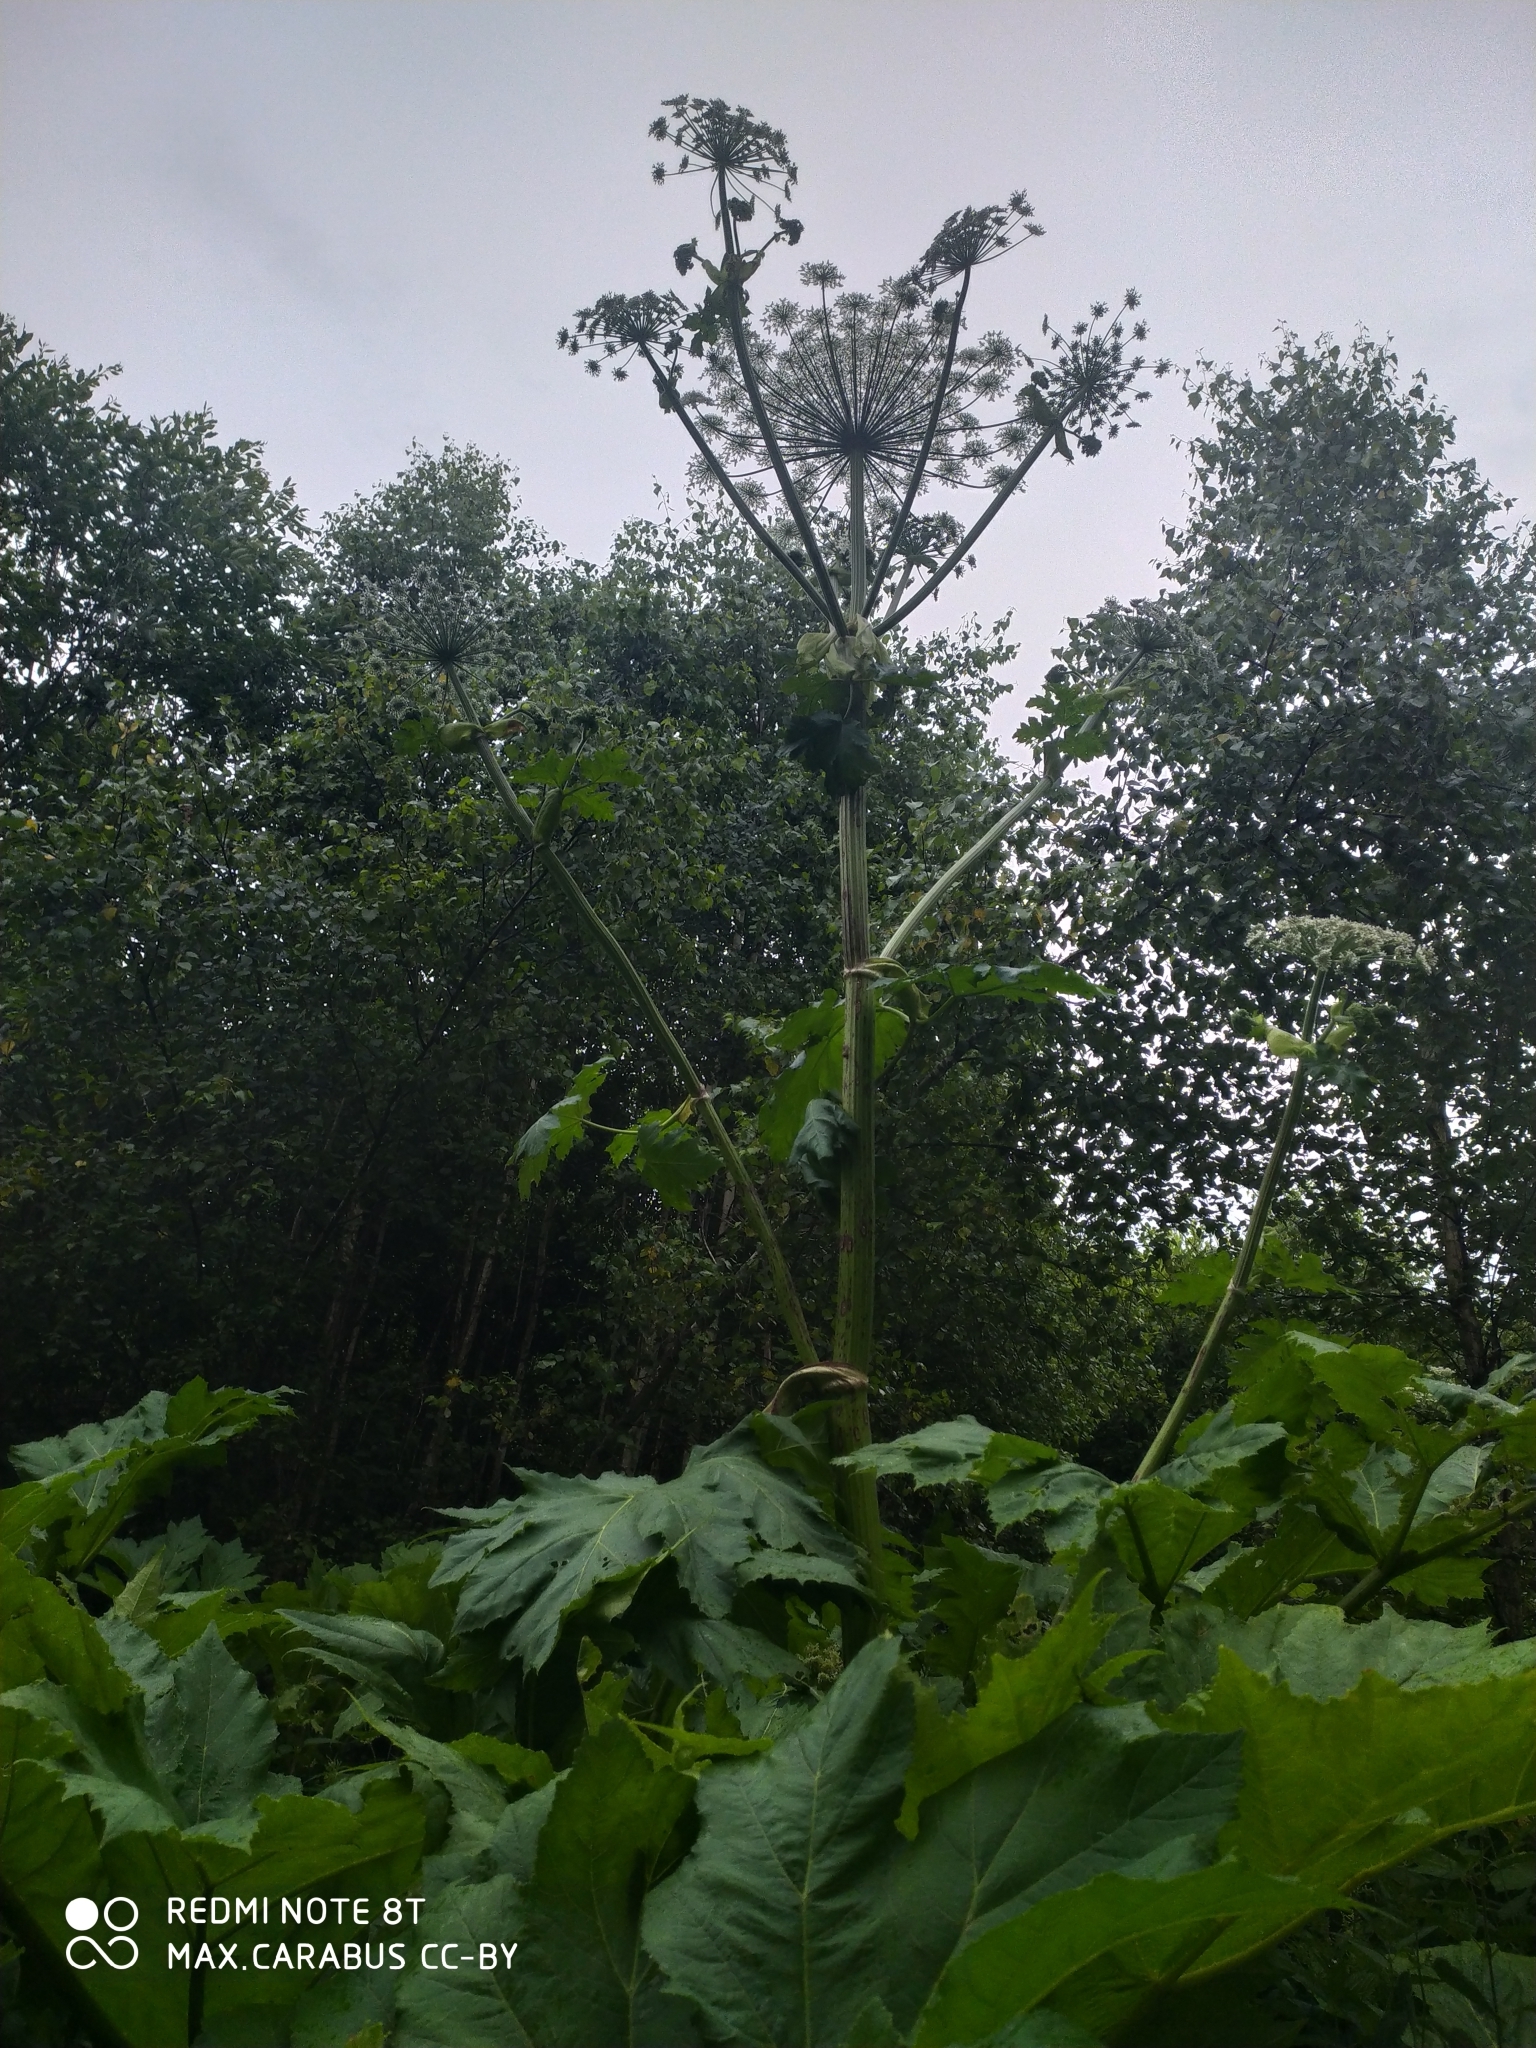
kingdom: Plantae
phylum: Tracheophyta
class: Magnoliopsida
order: Apiales
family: Apiaceae
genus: Heracleum
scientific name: Heracleum sosnowskyi
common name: Sosnowsky's hogweed
